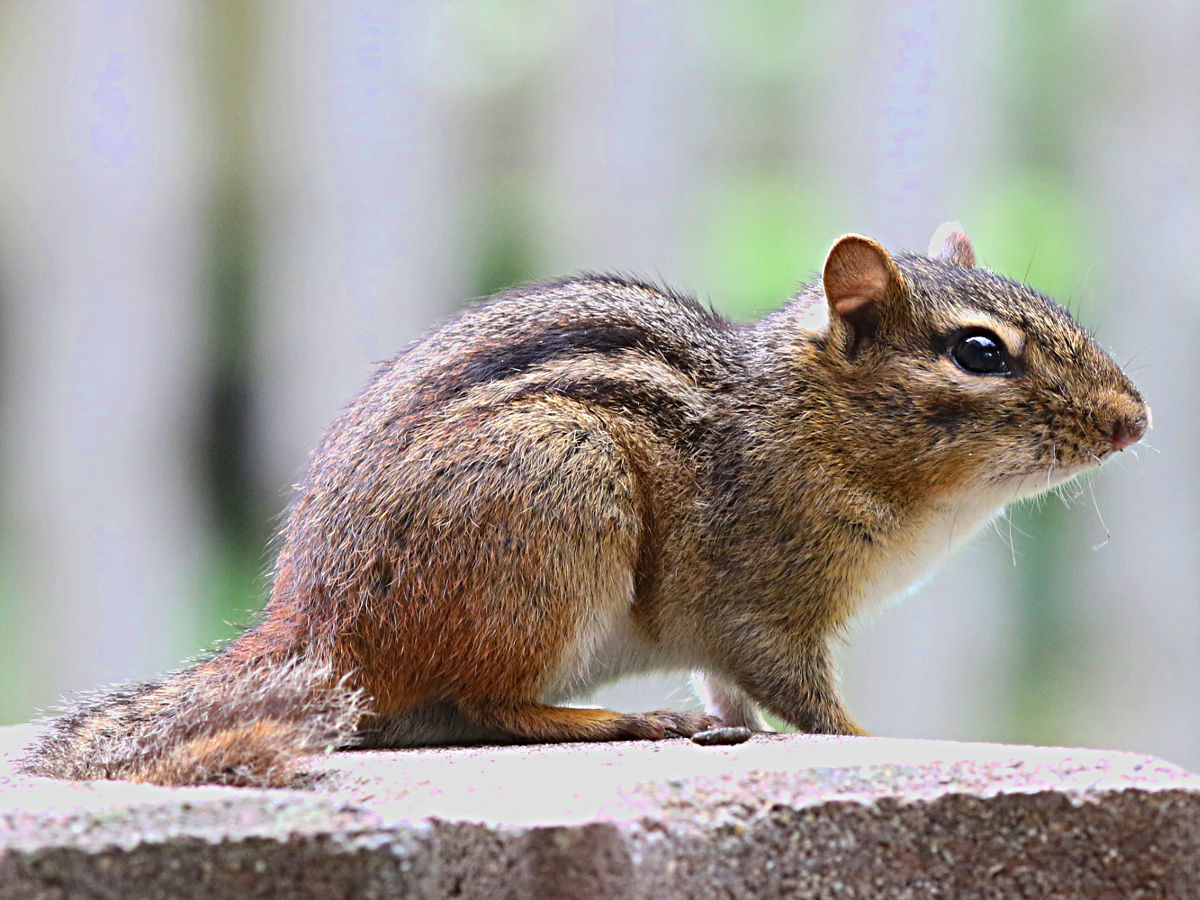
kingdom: Animalia
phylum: Chordata
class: Mammalia
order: Rodentia
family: Sciuridae
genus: Tamias
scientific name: Tamias striatus
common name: Eastern chipmunk
